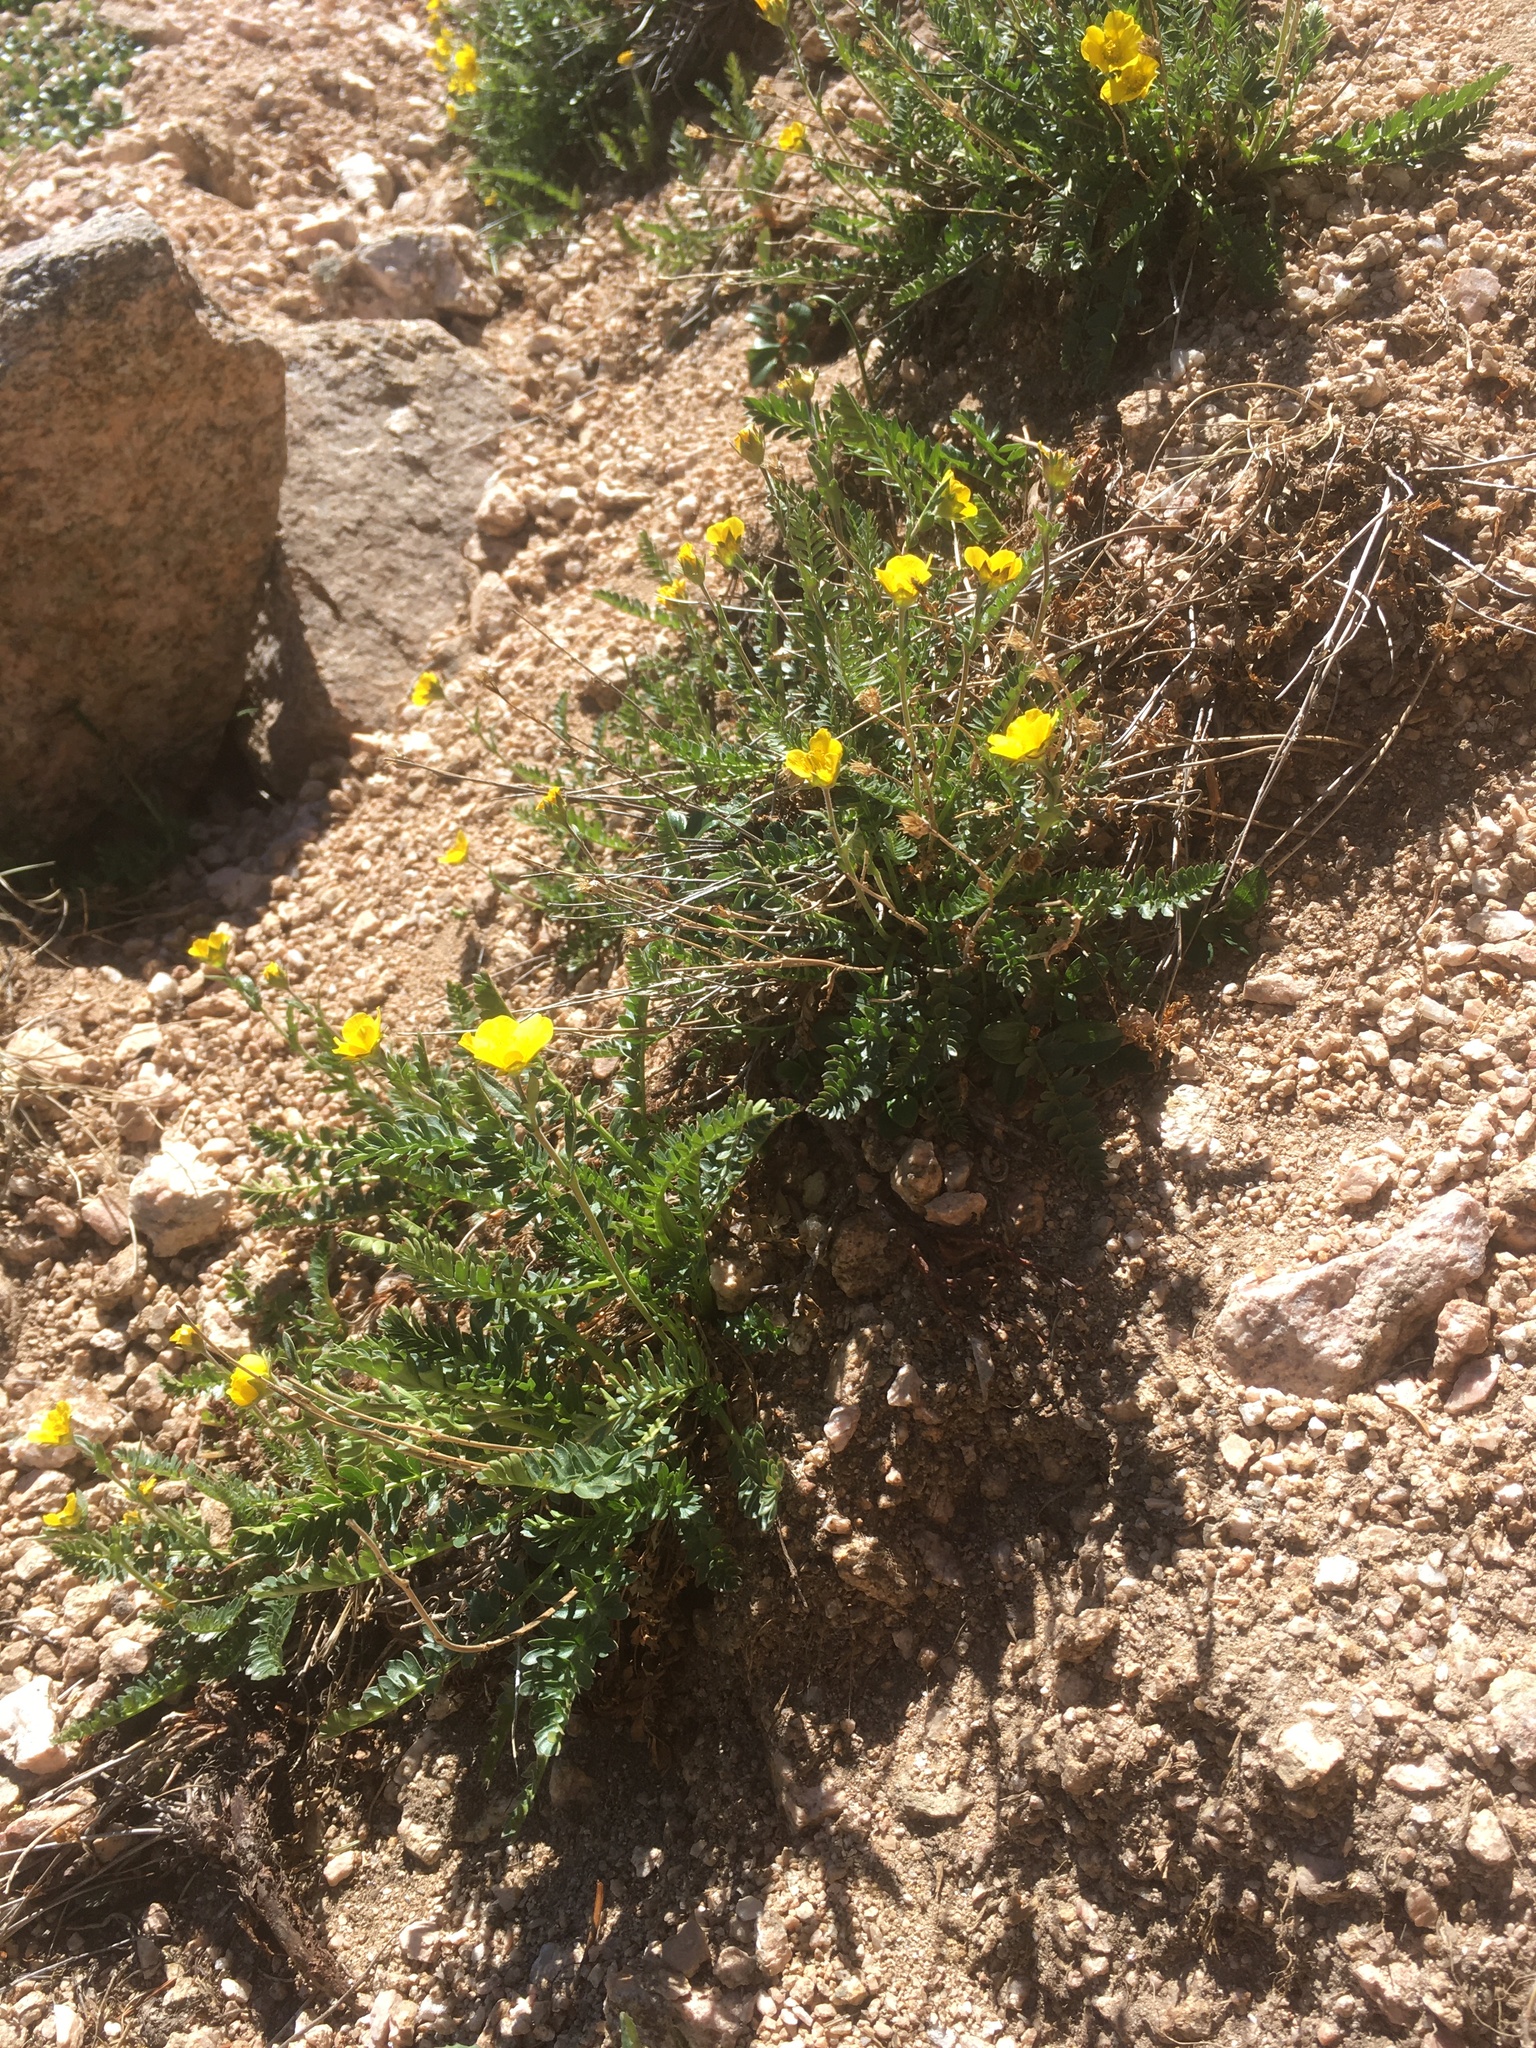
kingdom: Plantae
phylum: Tracheophyta
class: Magnoliopsida
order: Rosales
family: Rosaceae
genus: Geum
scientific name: Geum rossii
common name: Alpine avens
